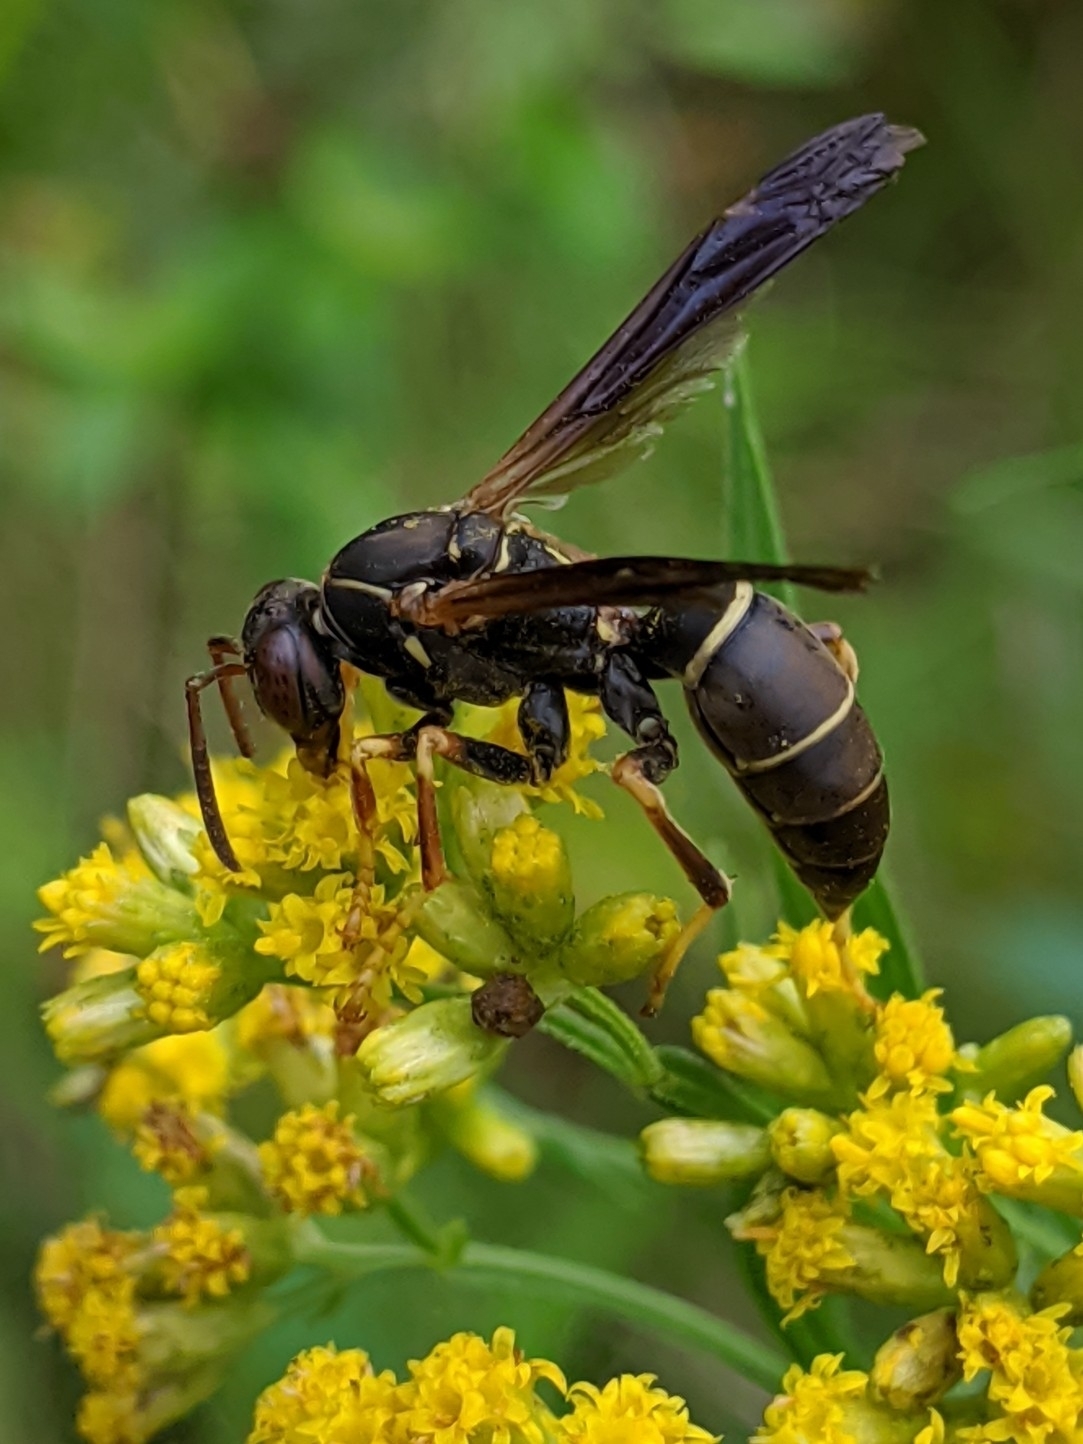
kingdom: Animalia
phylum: Arthropoda
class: Insecta
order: Hymenoptera
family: Eumenidae
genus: Polistes
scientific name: Polistes fuscatus
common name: Dark paper wasp
